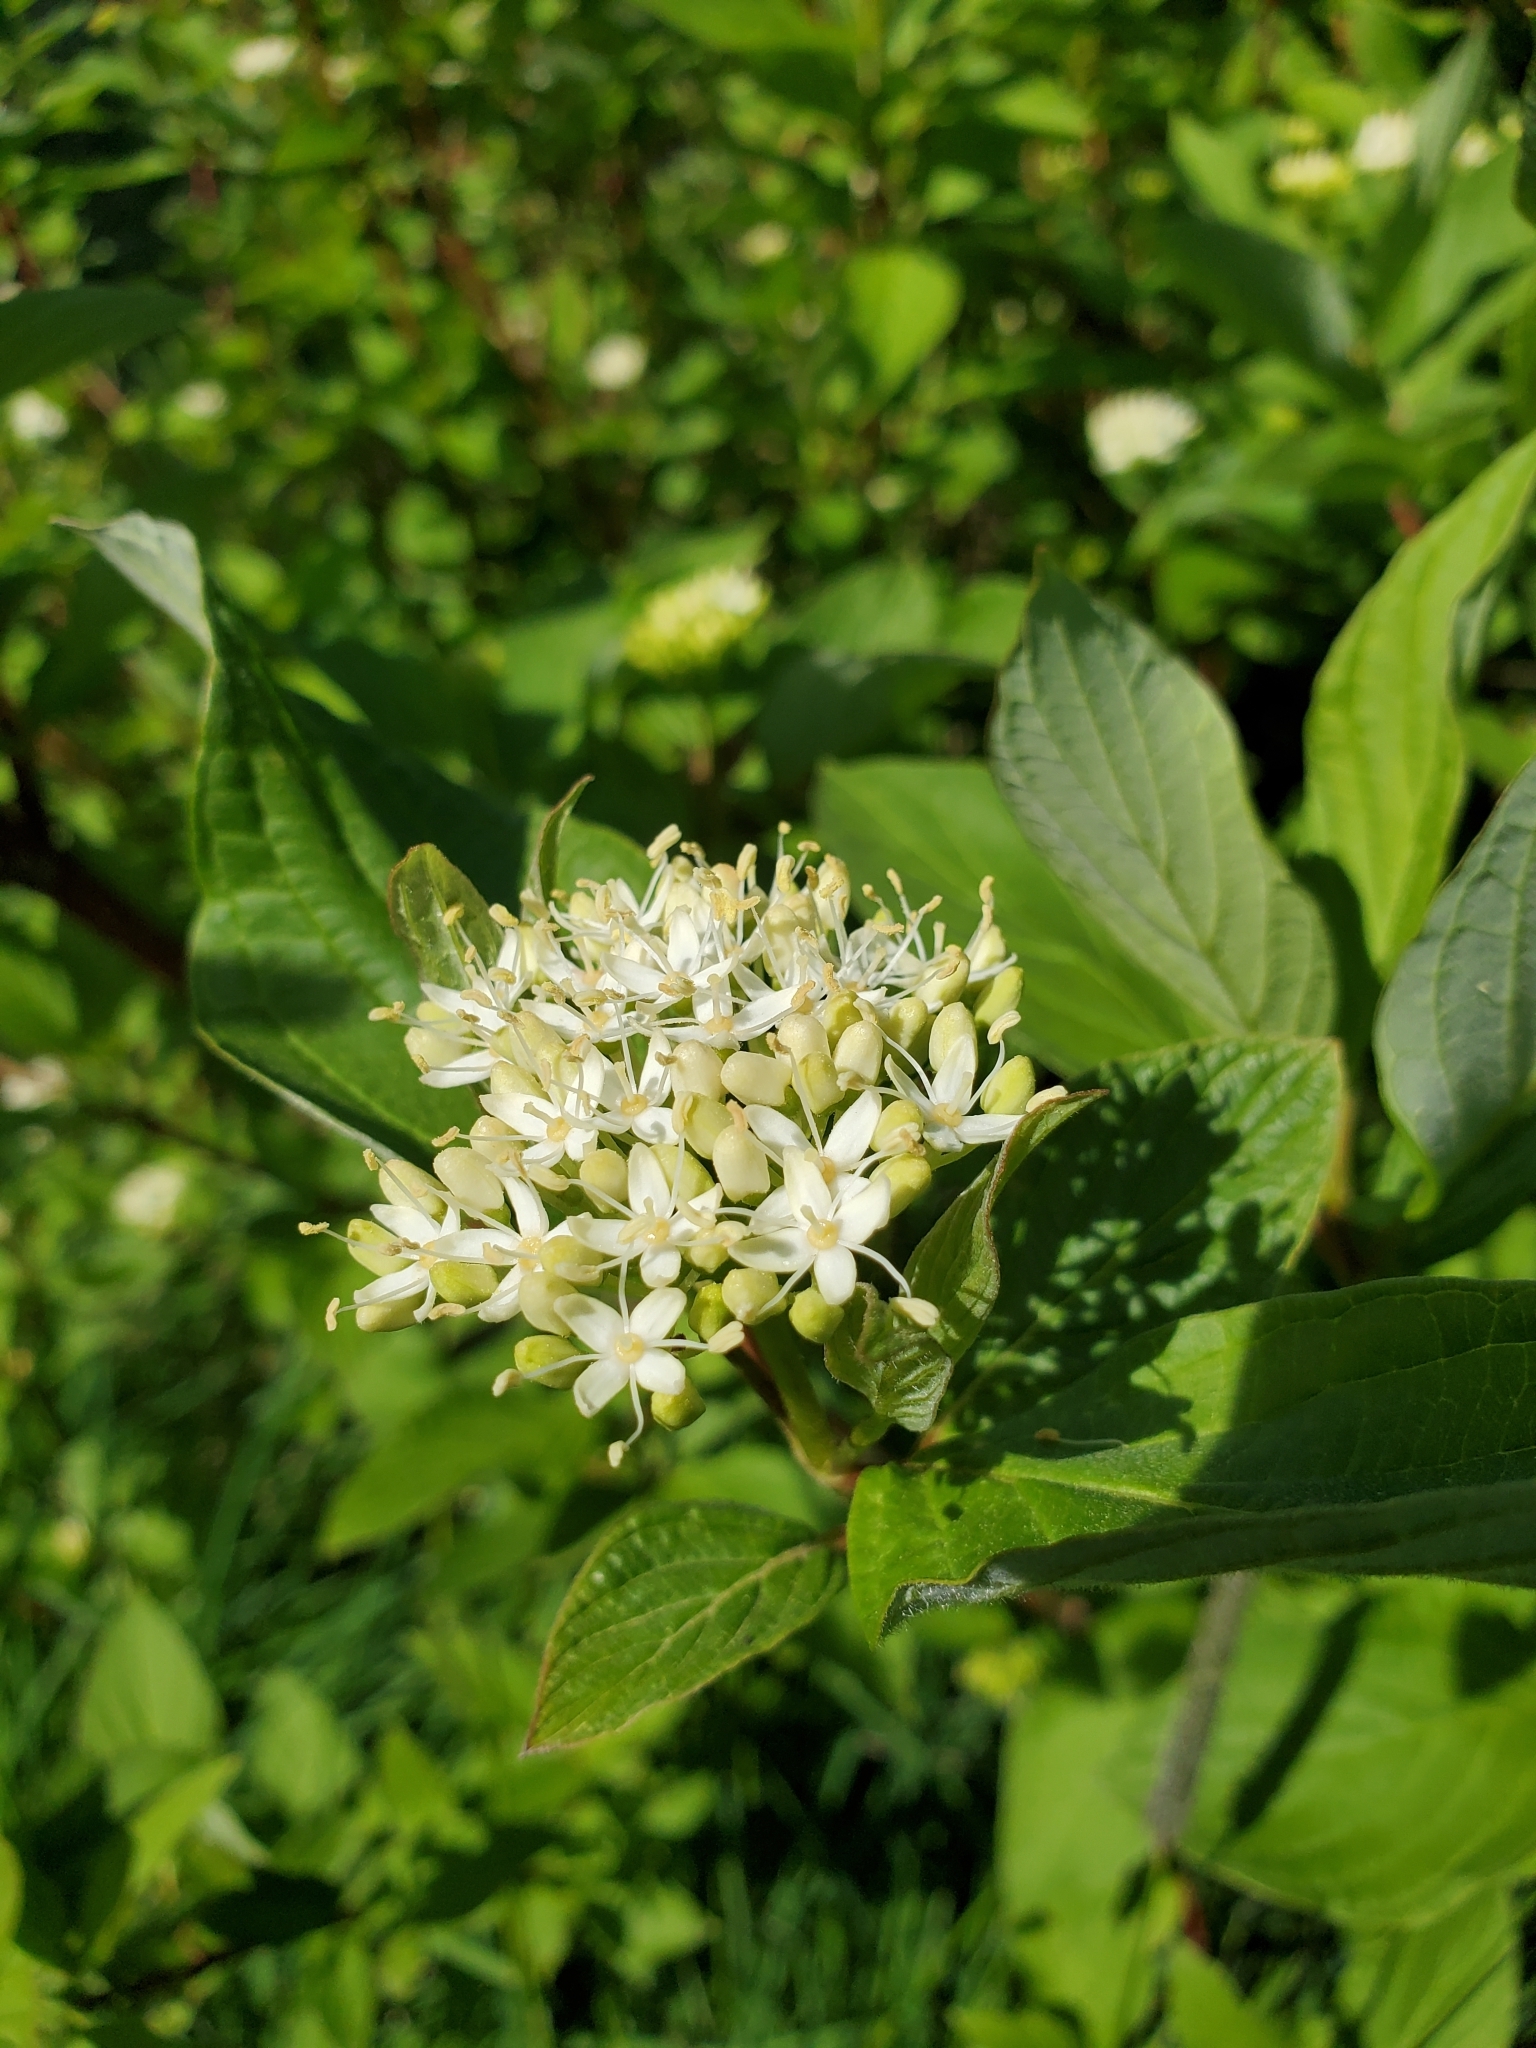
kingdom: Plantae
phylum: Tracheophyta
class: Magnoliopsida
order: Cornales
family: Cornaceae
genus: Cornus
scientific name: Cornus sericea
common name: Red-osier dogwood
